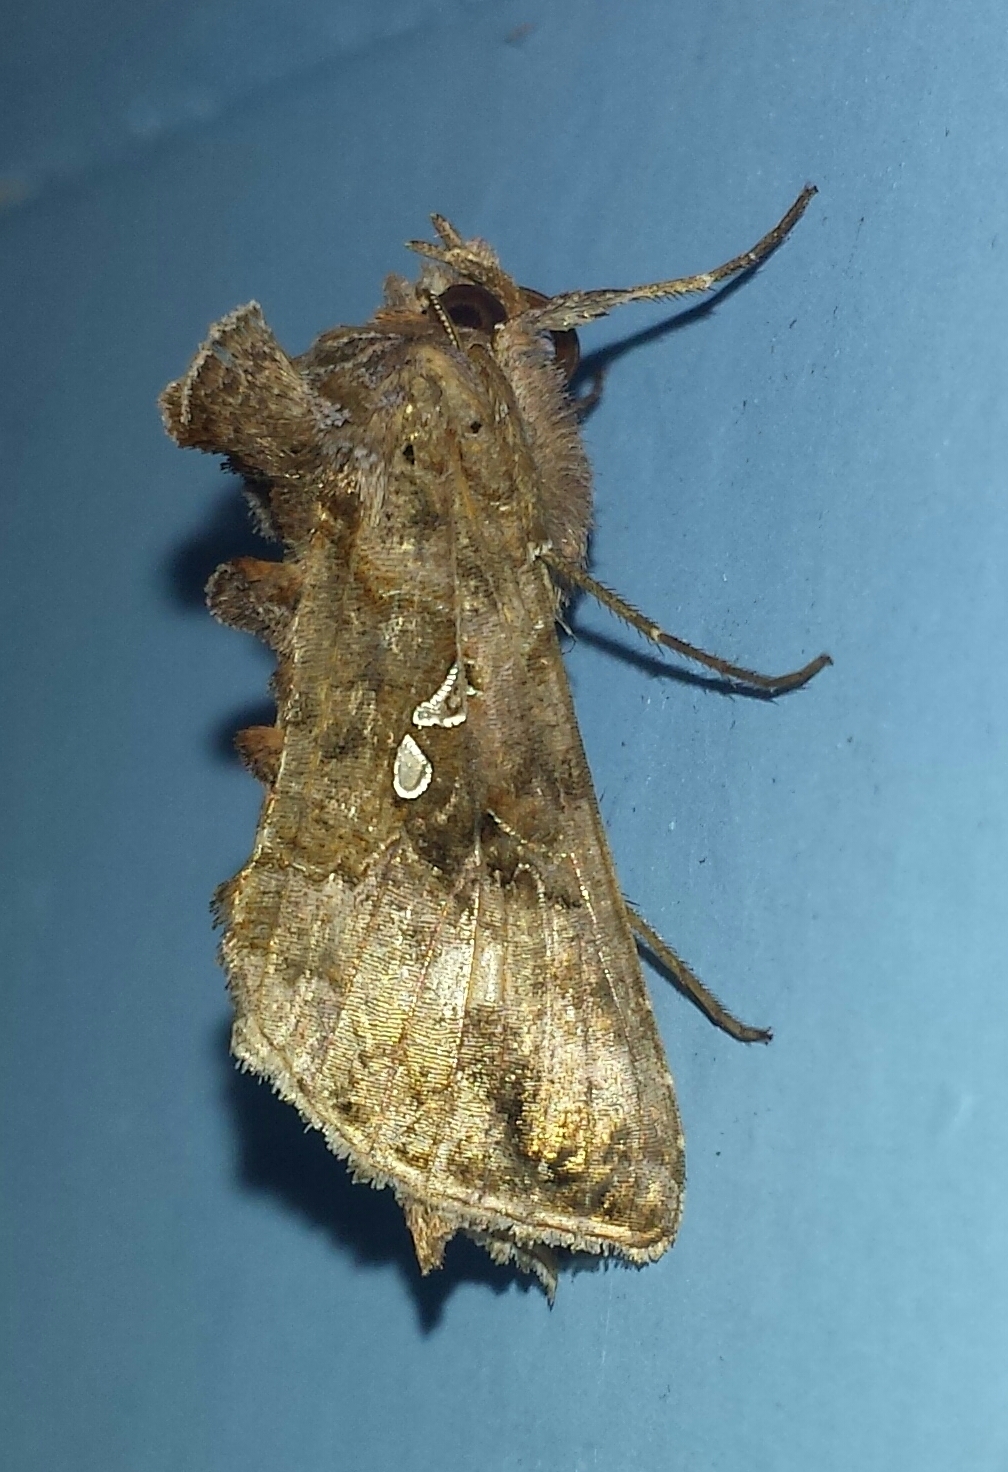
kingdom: Animalia
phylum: Arthropoda
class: Insecta
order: Lepidoptera
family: Noctuidae
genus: Autographa
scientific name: Autographa precationis
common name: Common looper moth
